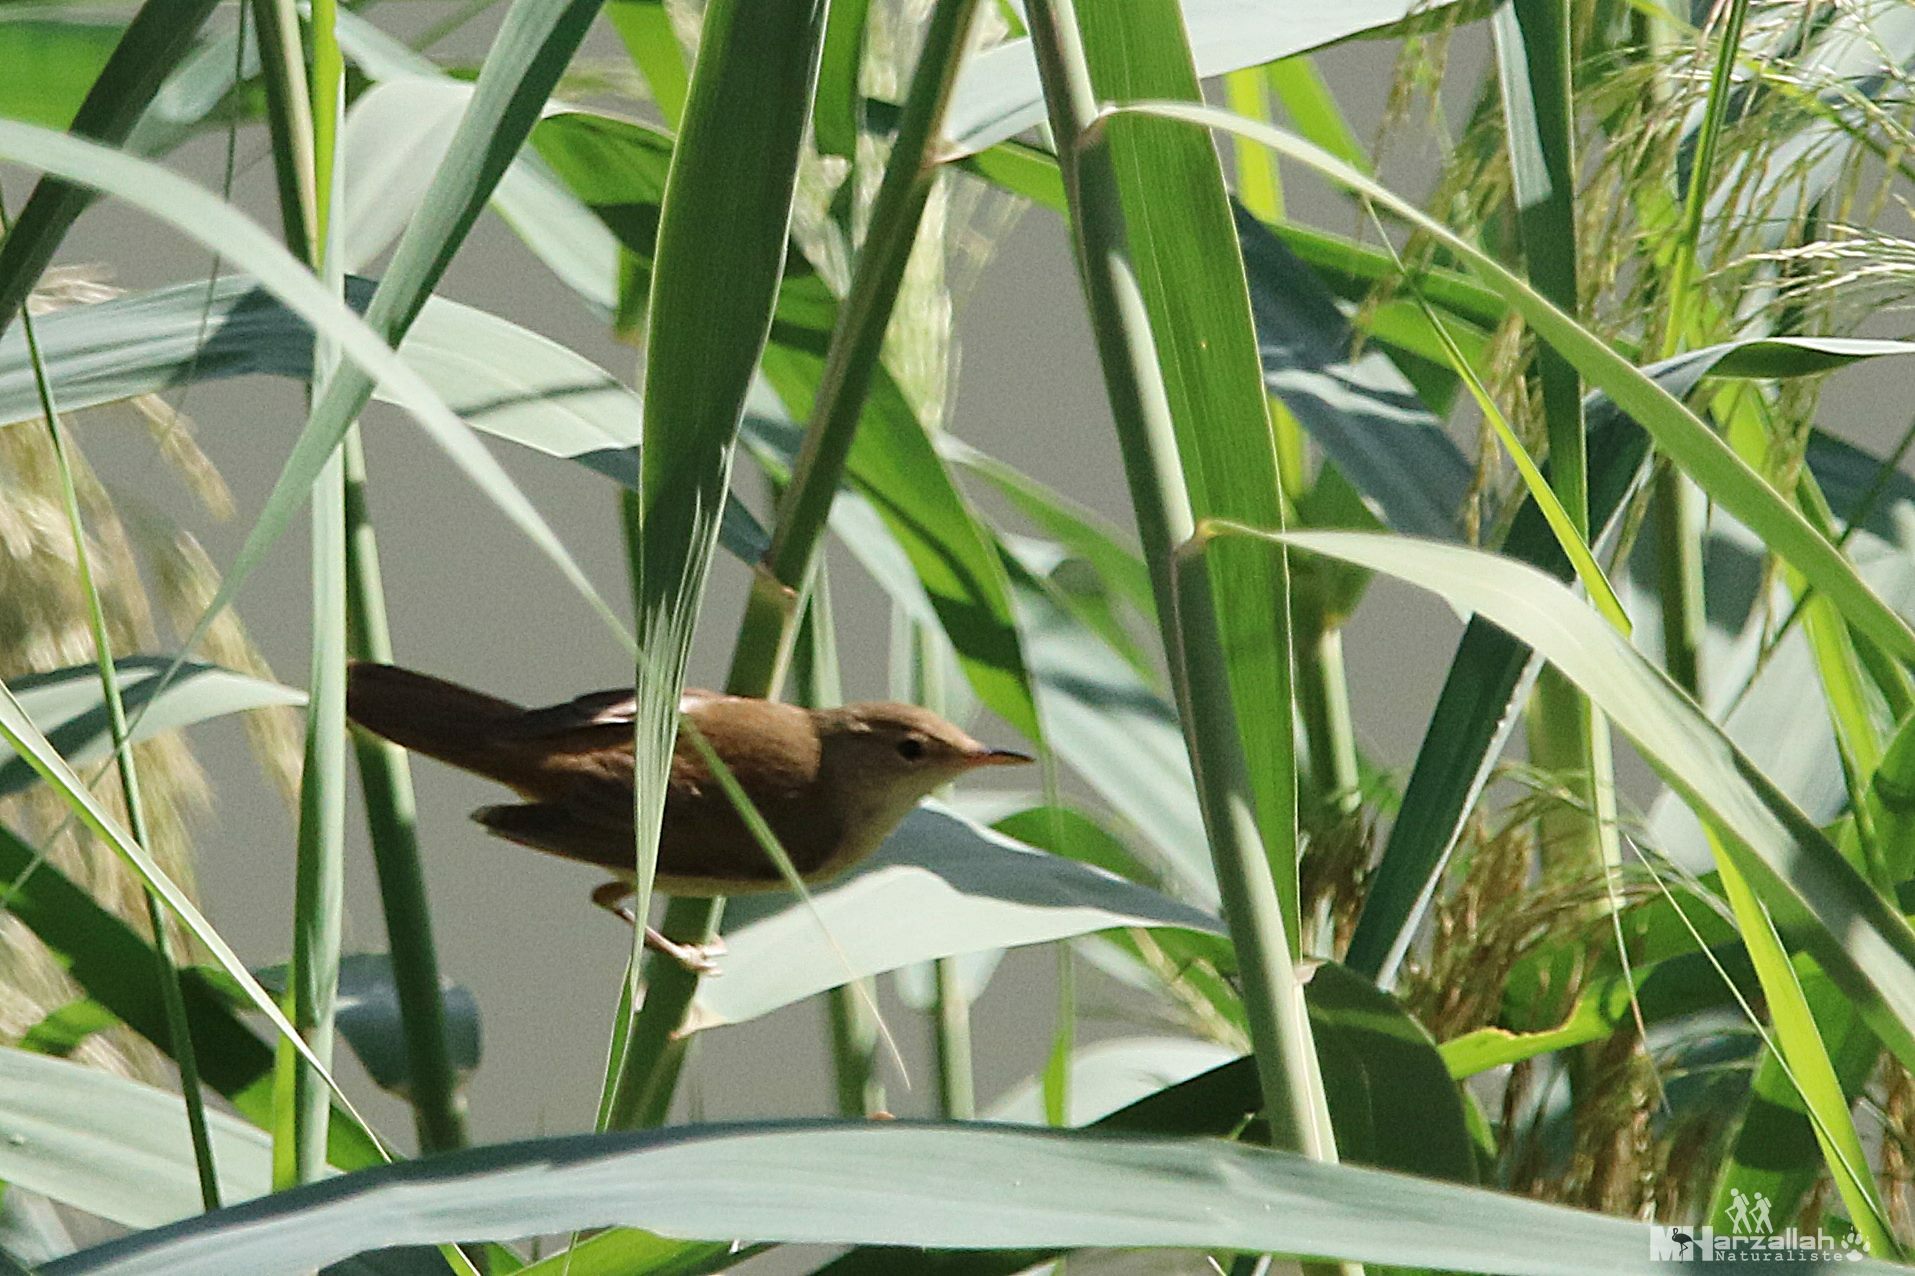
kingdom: Animalia
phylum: Chordata
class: Aves
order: Passeriformes
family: Acrocephalidae
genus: Acrocephalus
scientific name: Acrocephalus scirpaceus
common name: Eurasian reed warbler
